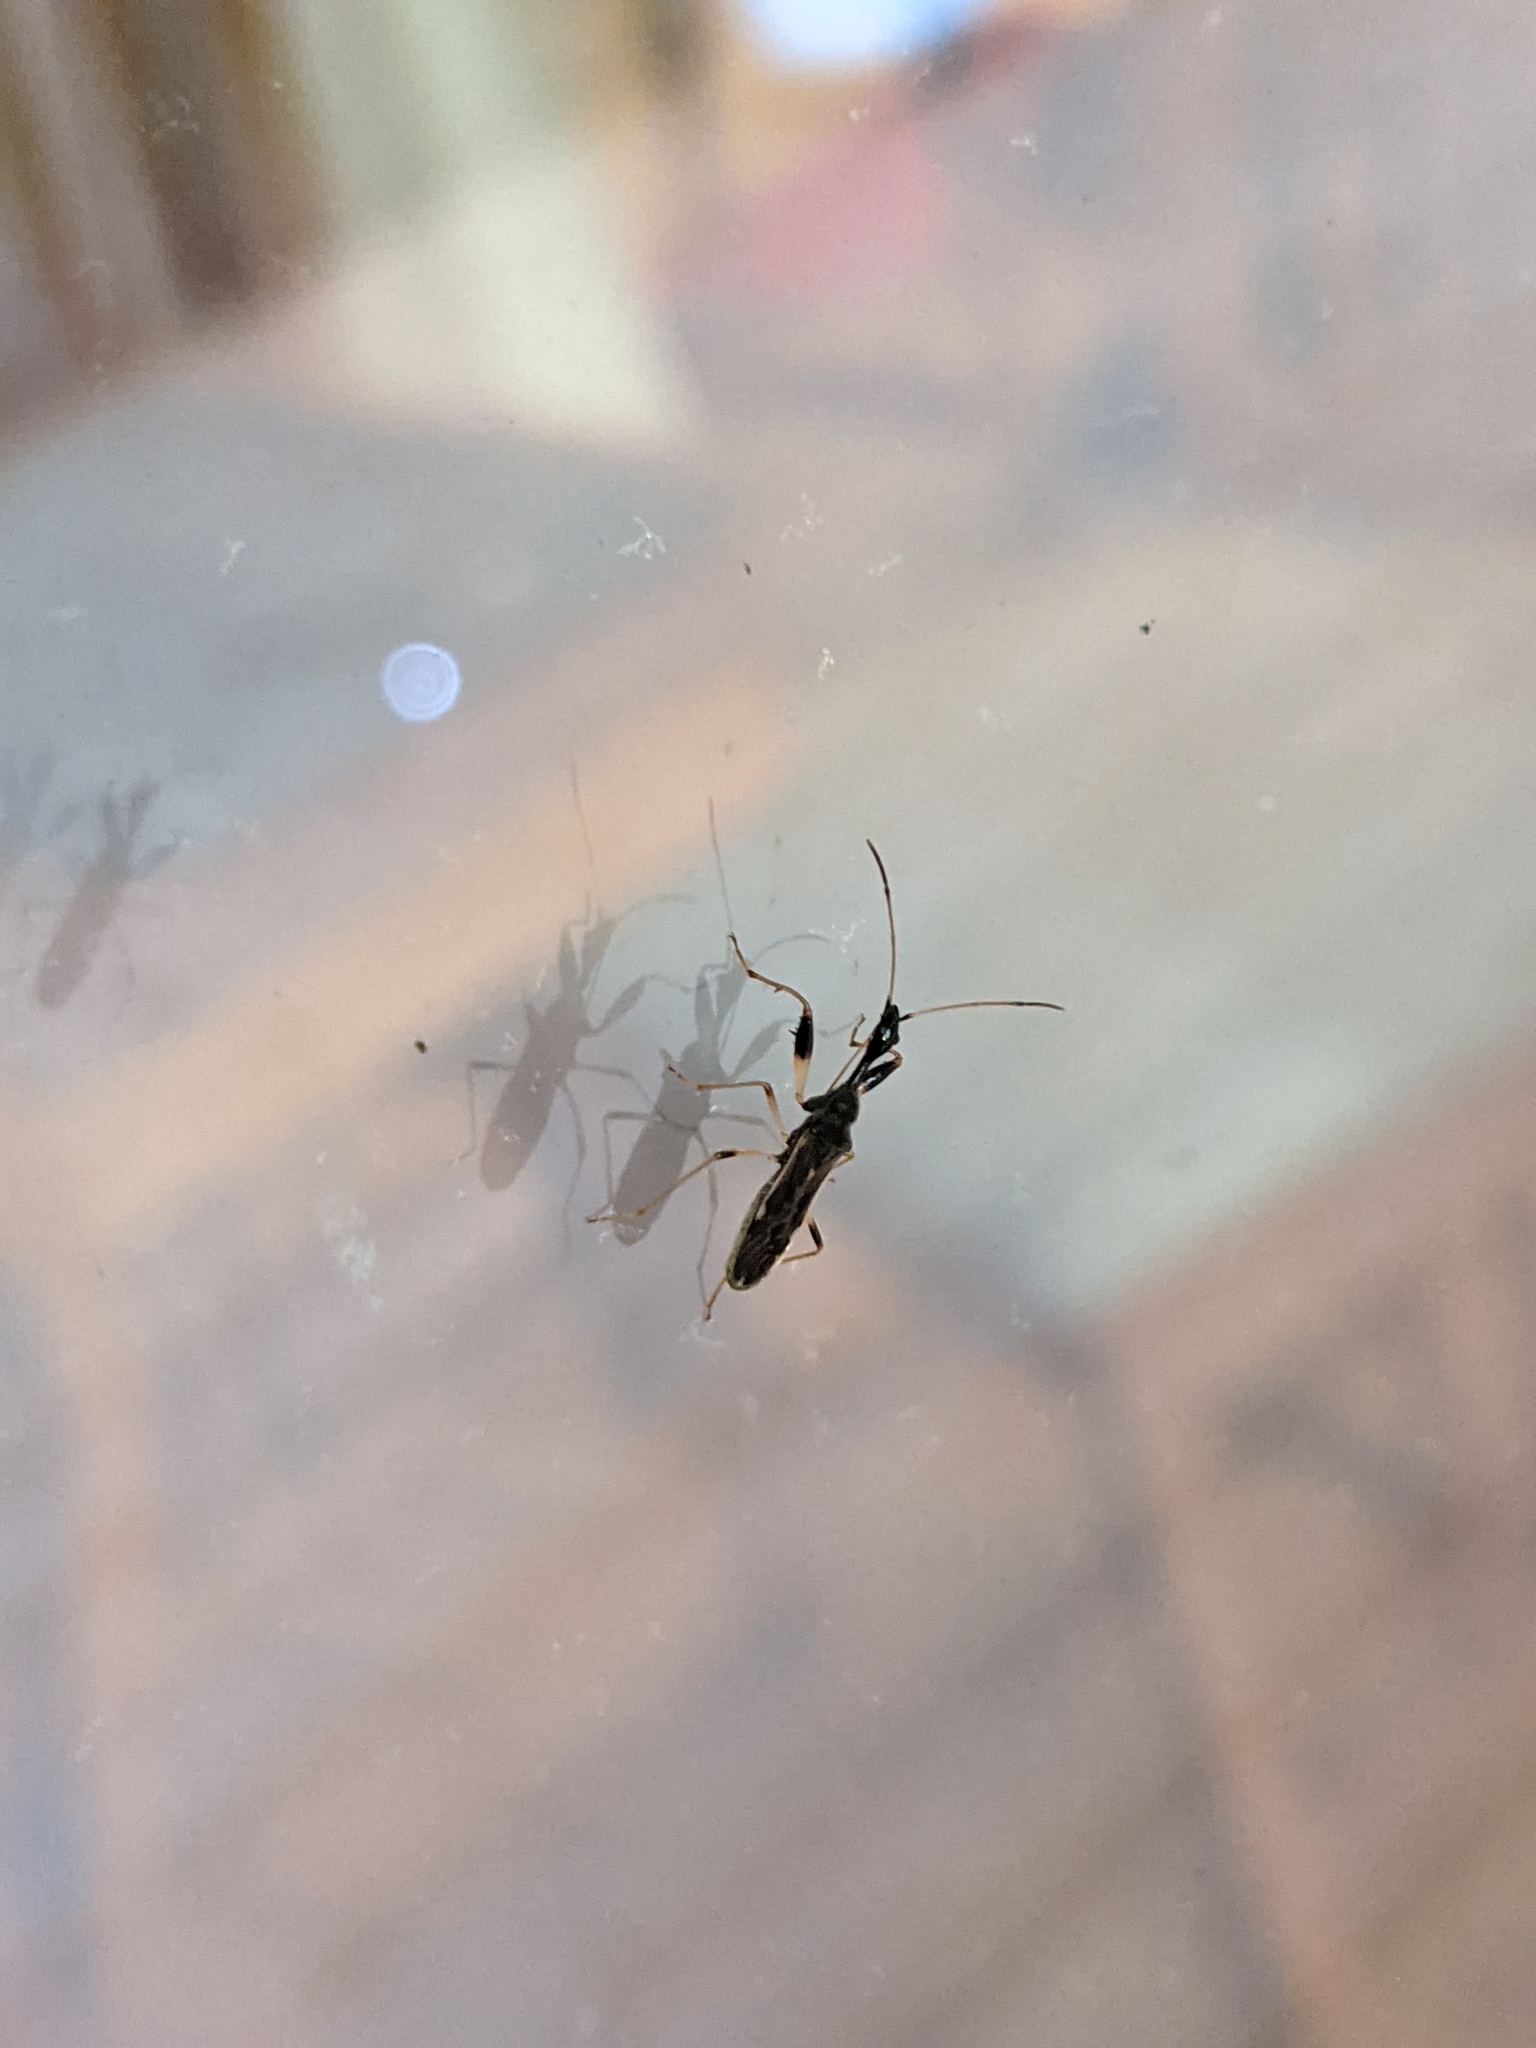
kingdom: Animalia
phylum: Arthropoda
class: Insecta
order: Hemiptera
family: Rhyparochromidae
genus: Myodocha
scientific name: Myodocha serripes
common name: Long-necked seed bug
